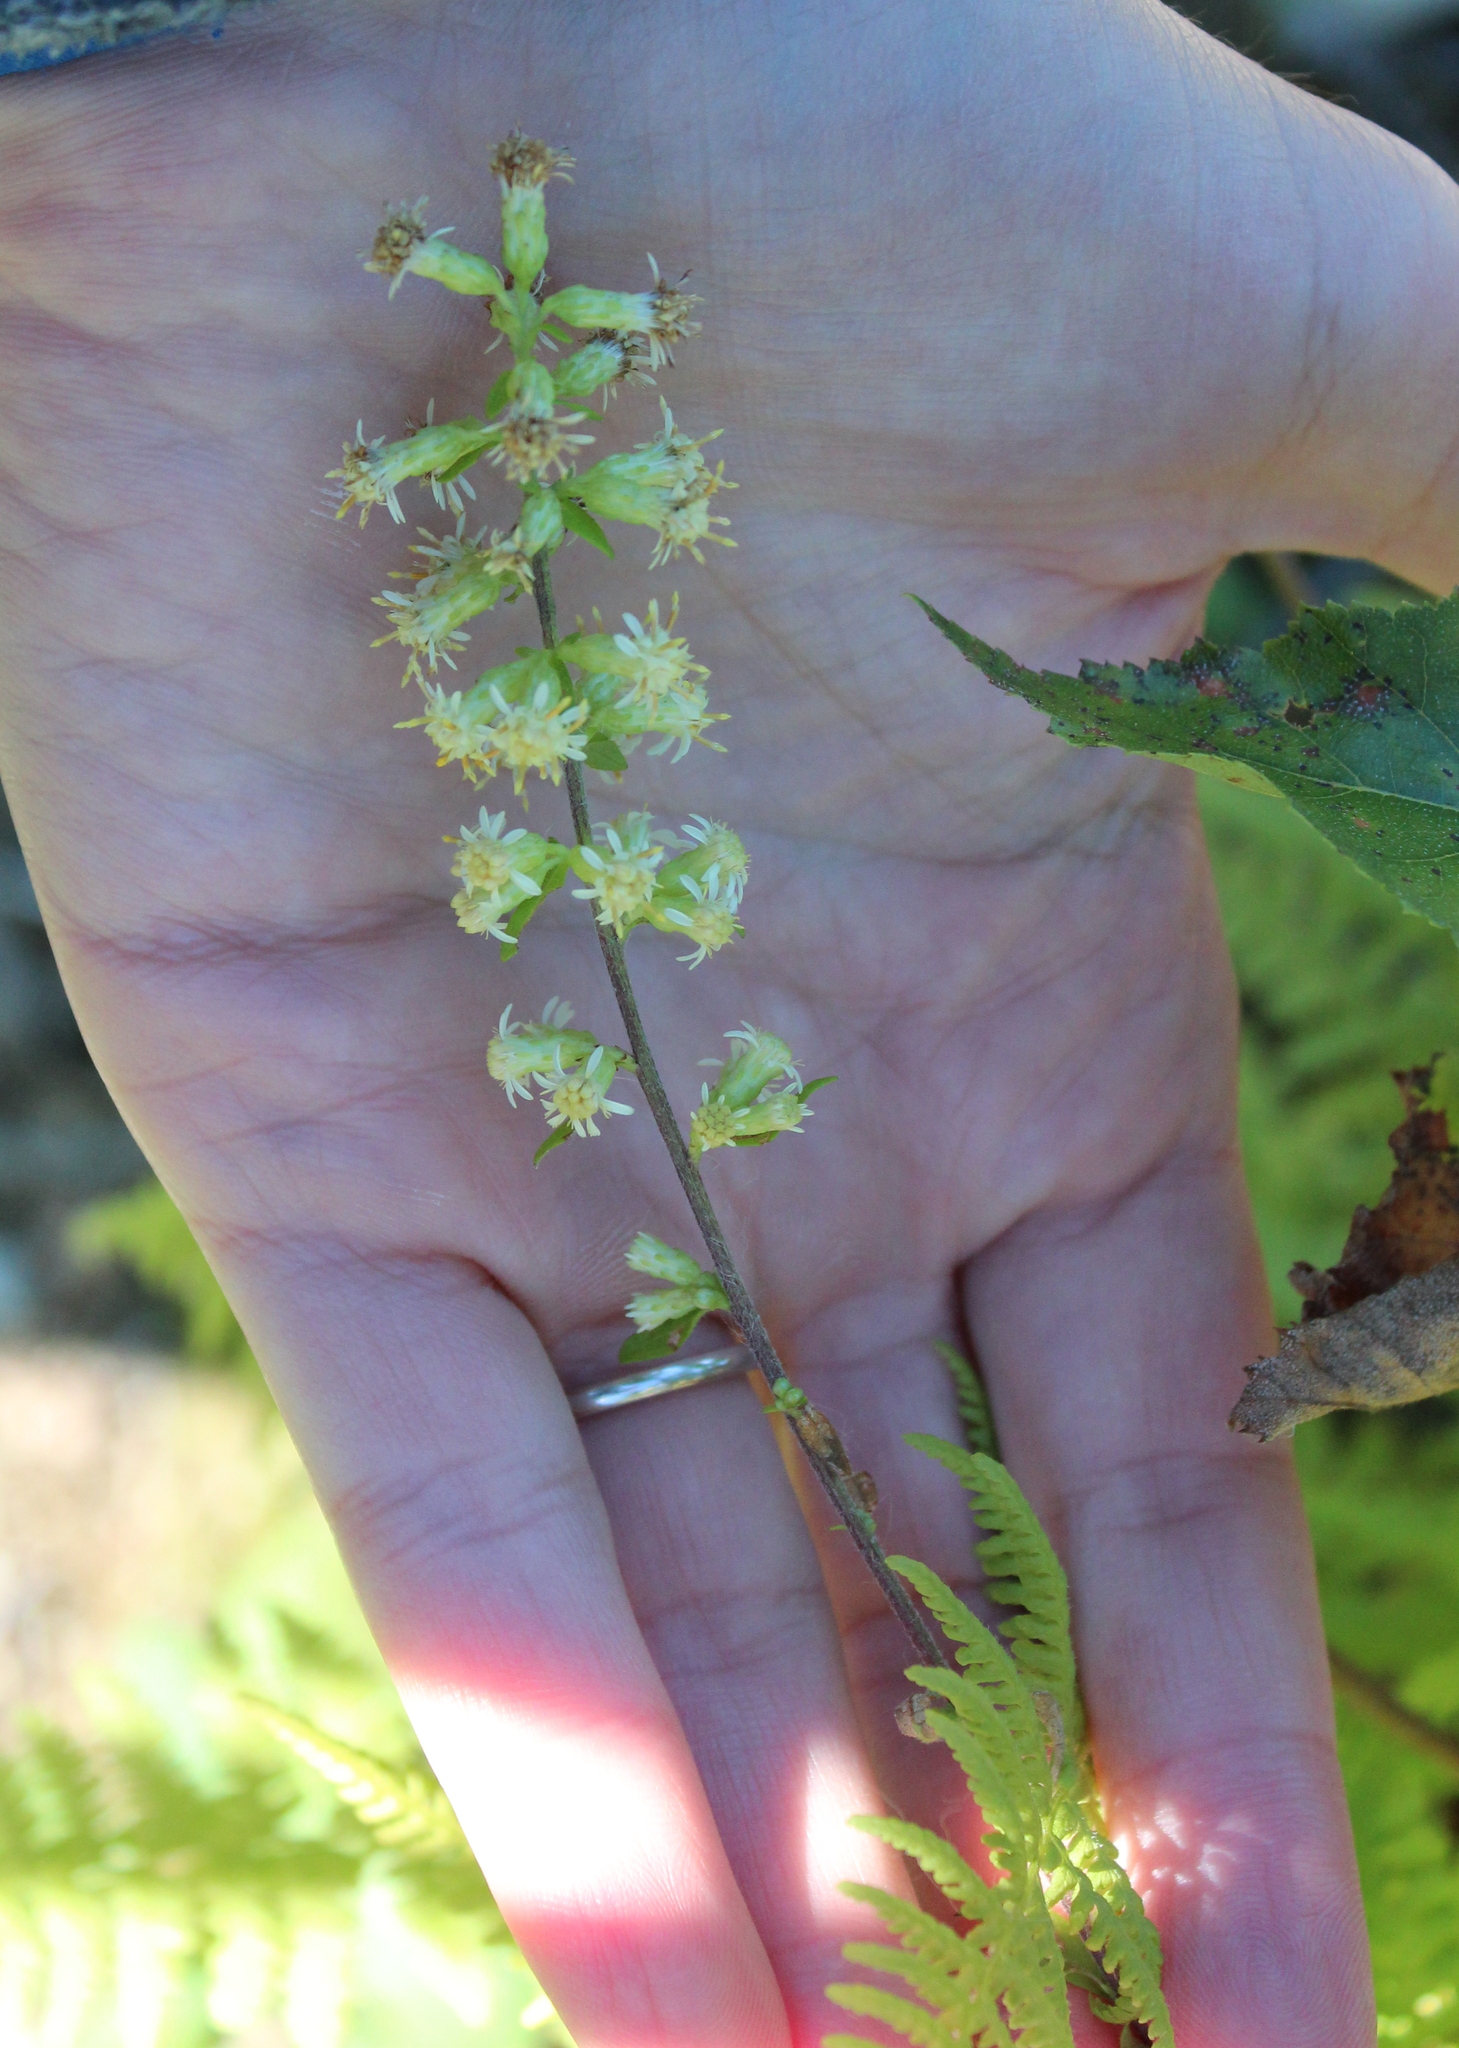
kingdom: Plantae
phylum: Tracheophyta
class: Magnoliopsida
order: Asterales
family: Asteraceae
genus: Solidago
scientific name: Solidago bicolor
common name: Silverrod
